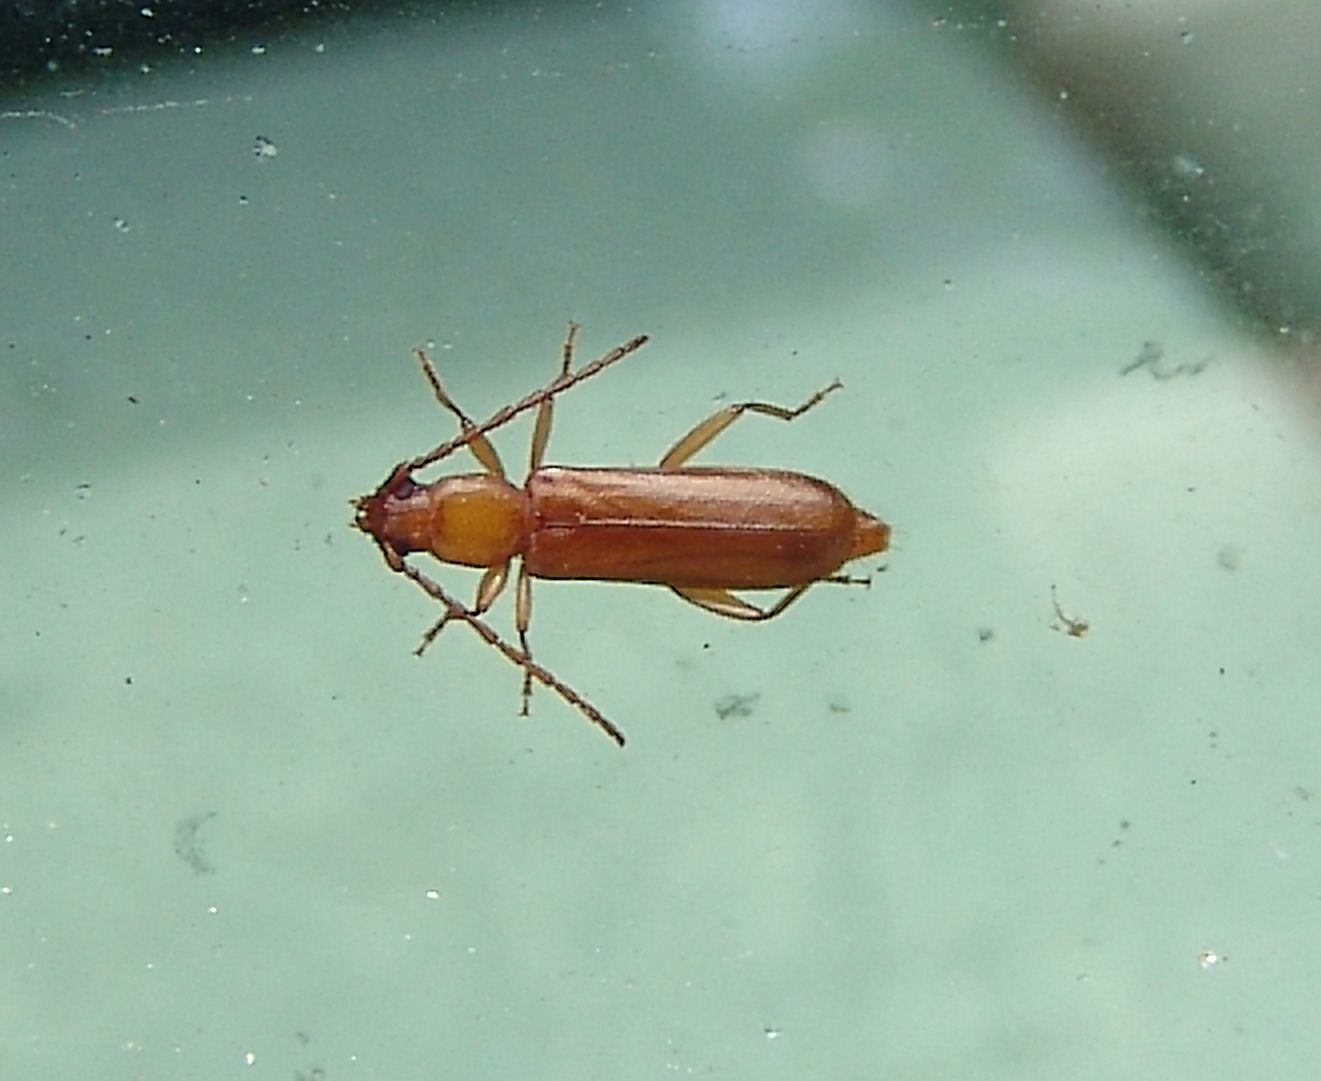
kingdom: Animalia
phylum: Arthropoda
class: Insecta
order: Coleoptera
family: Cerambycidae
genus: Smodicum
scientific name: Smodicum cucujiforme
